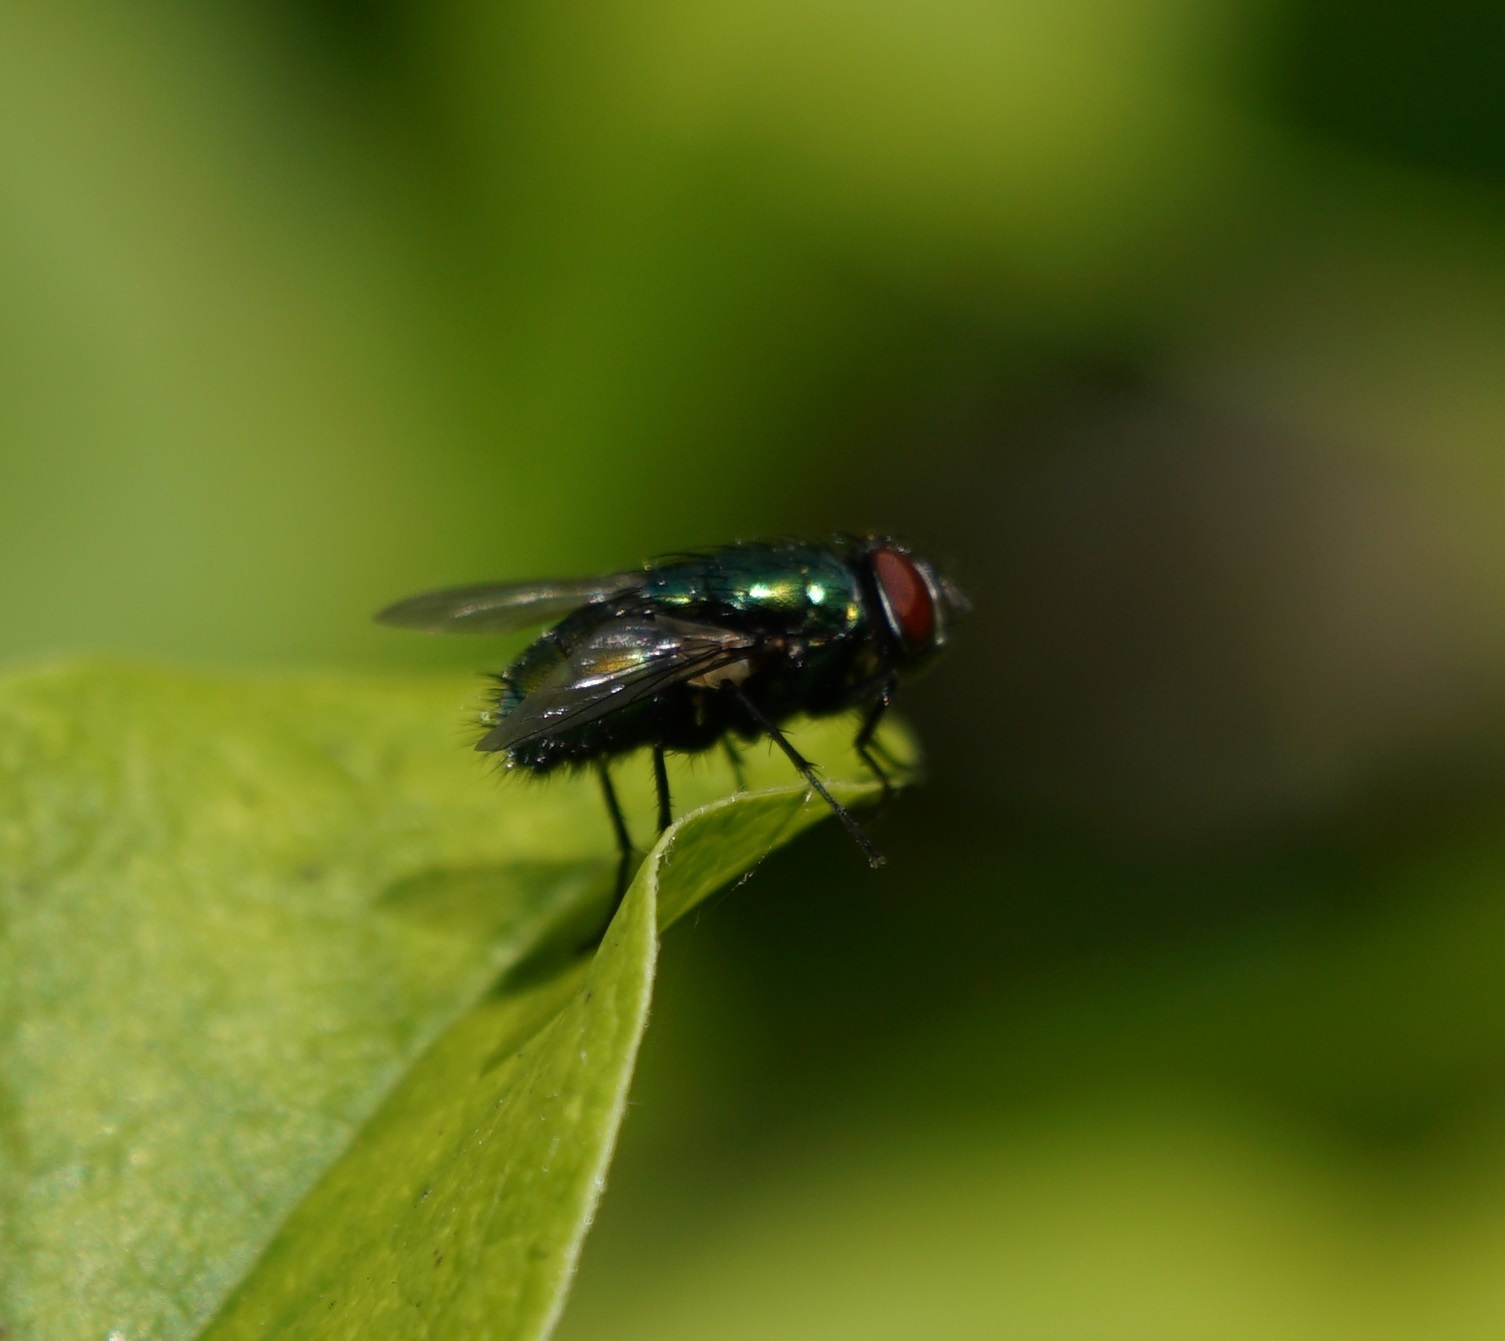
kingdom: Animalia
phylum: Arthropoda
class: Insecta
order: Diptera
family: Calliphoridae
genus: Lucilia
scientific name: Lucilia
